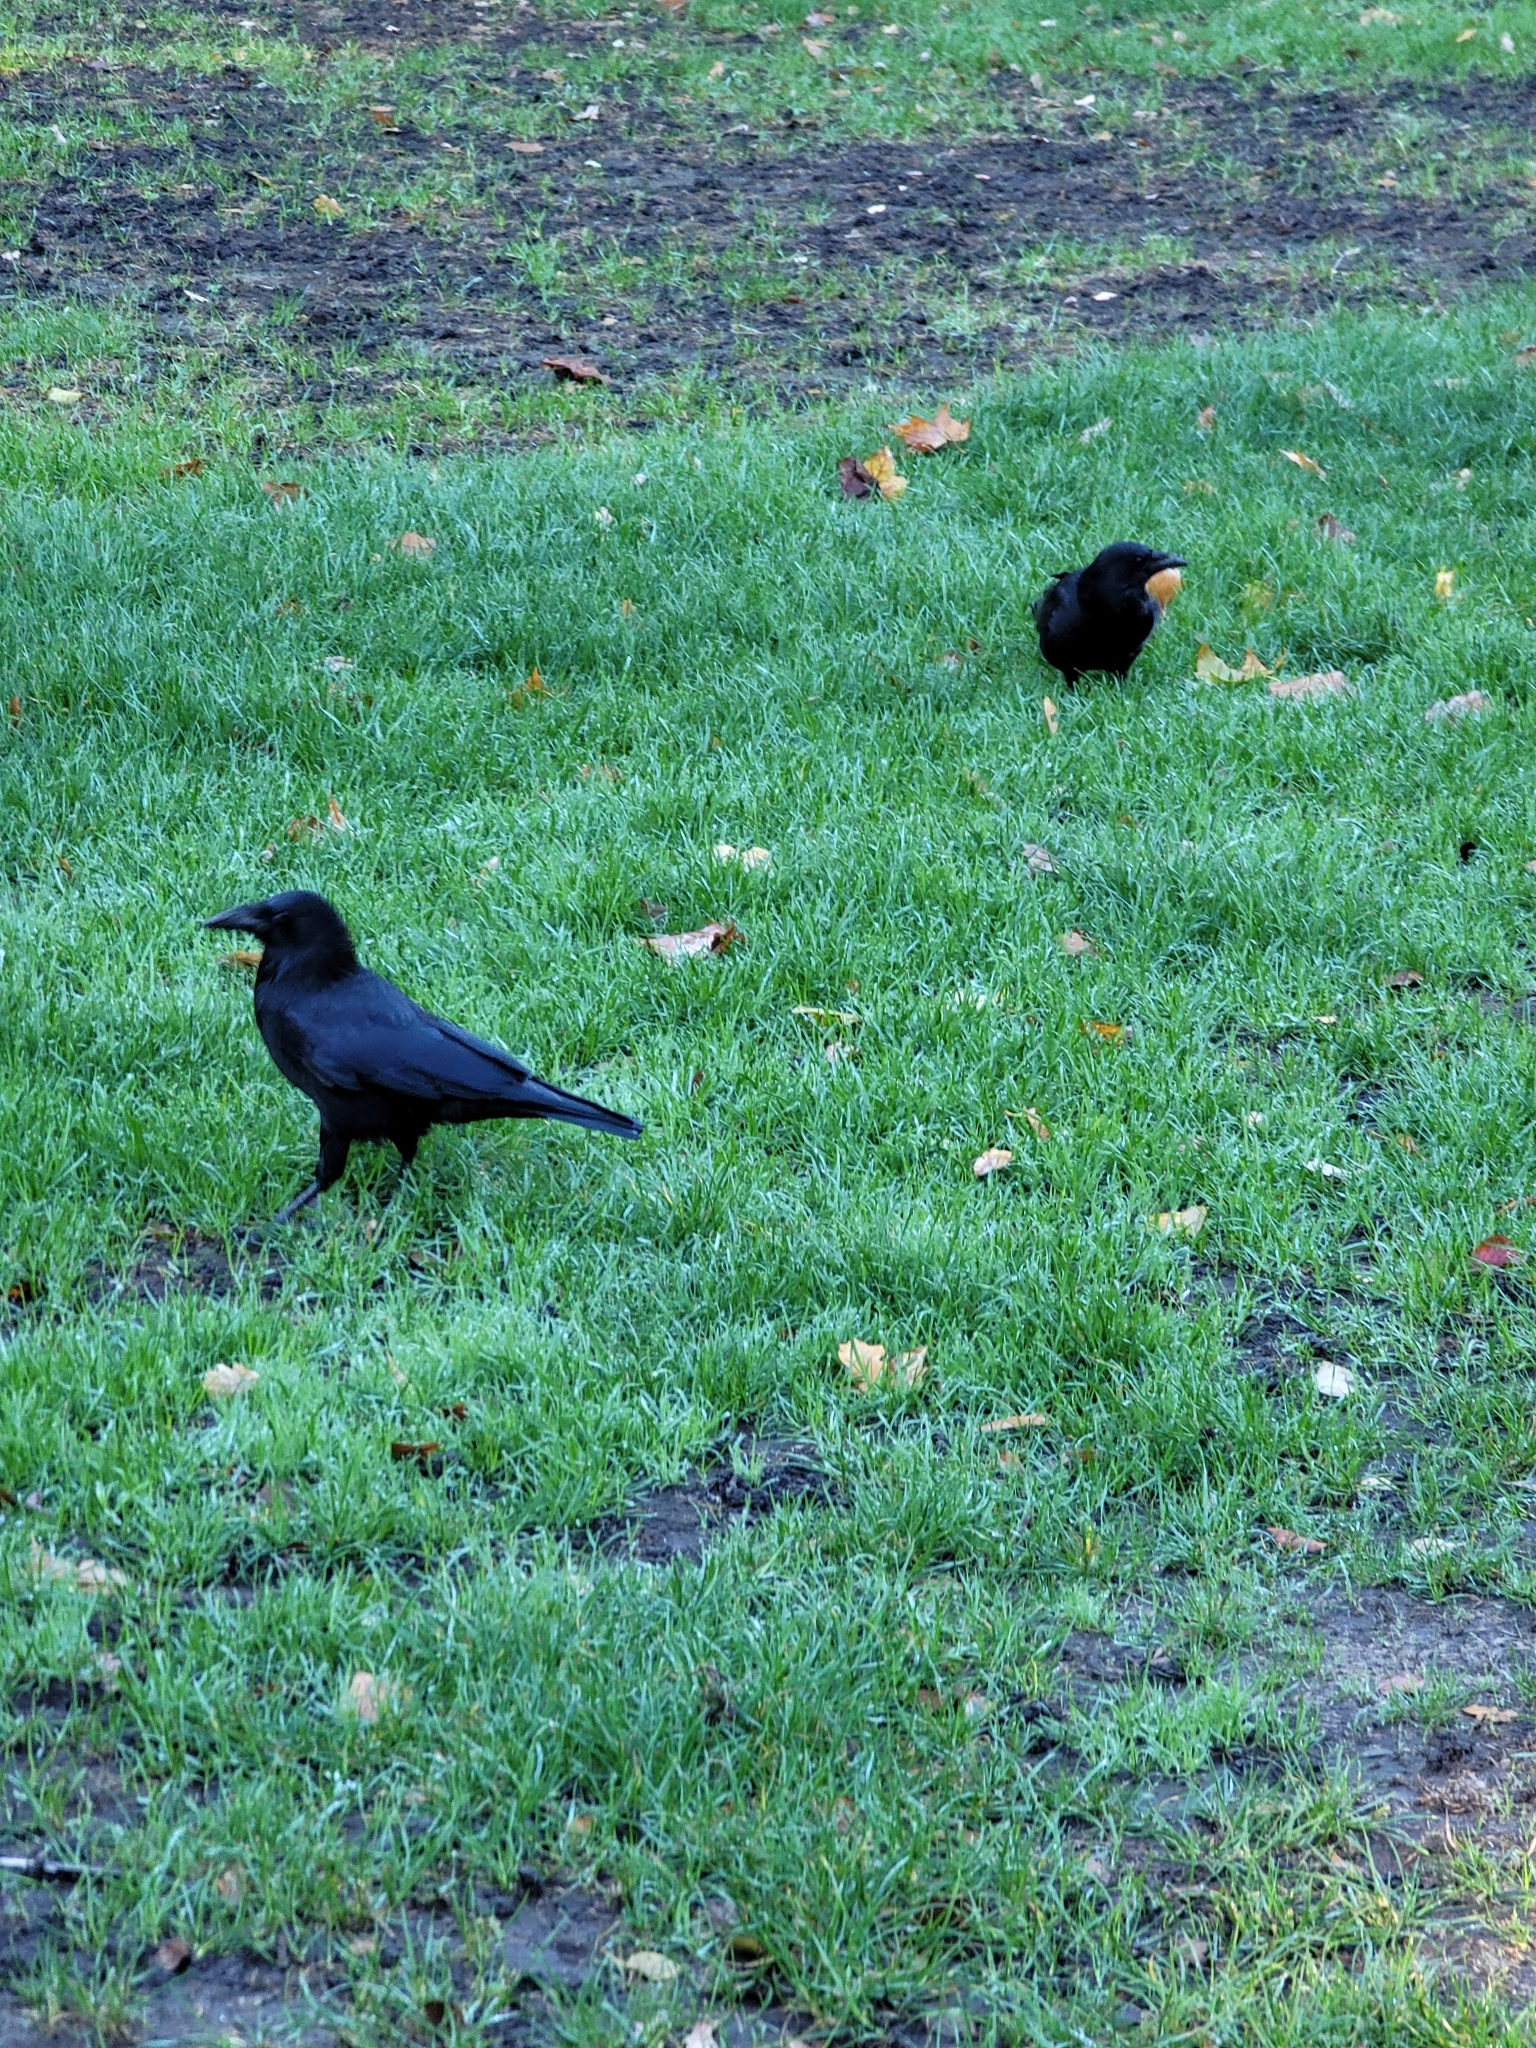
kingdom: Animalia
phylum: Chordata
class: Aves
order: Passeriformes
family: Corvidae
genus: Corvus
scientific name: Corvus corone
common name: Carrion crow
